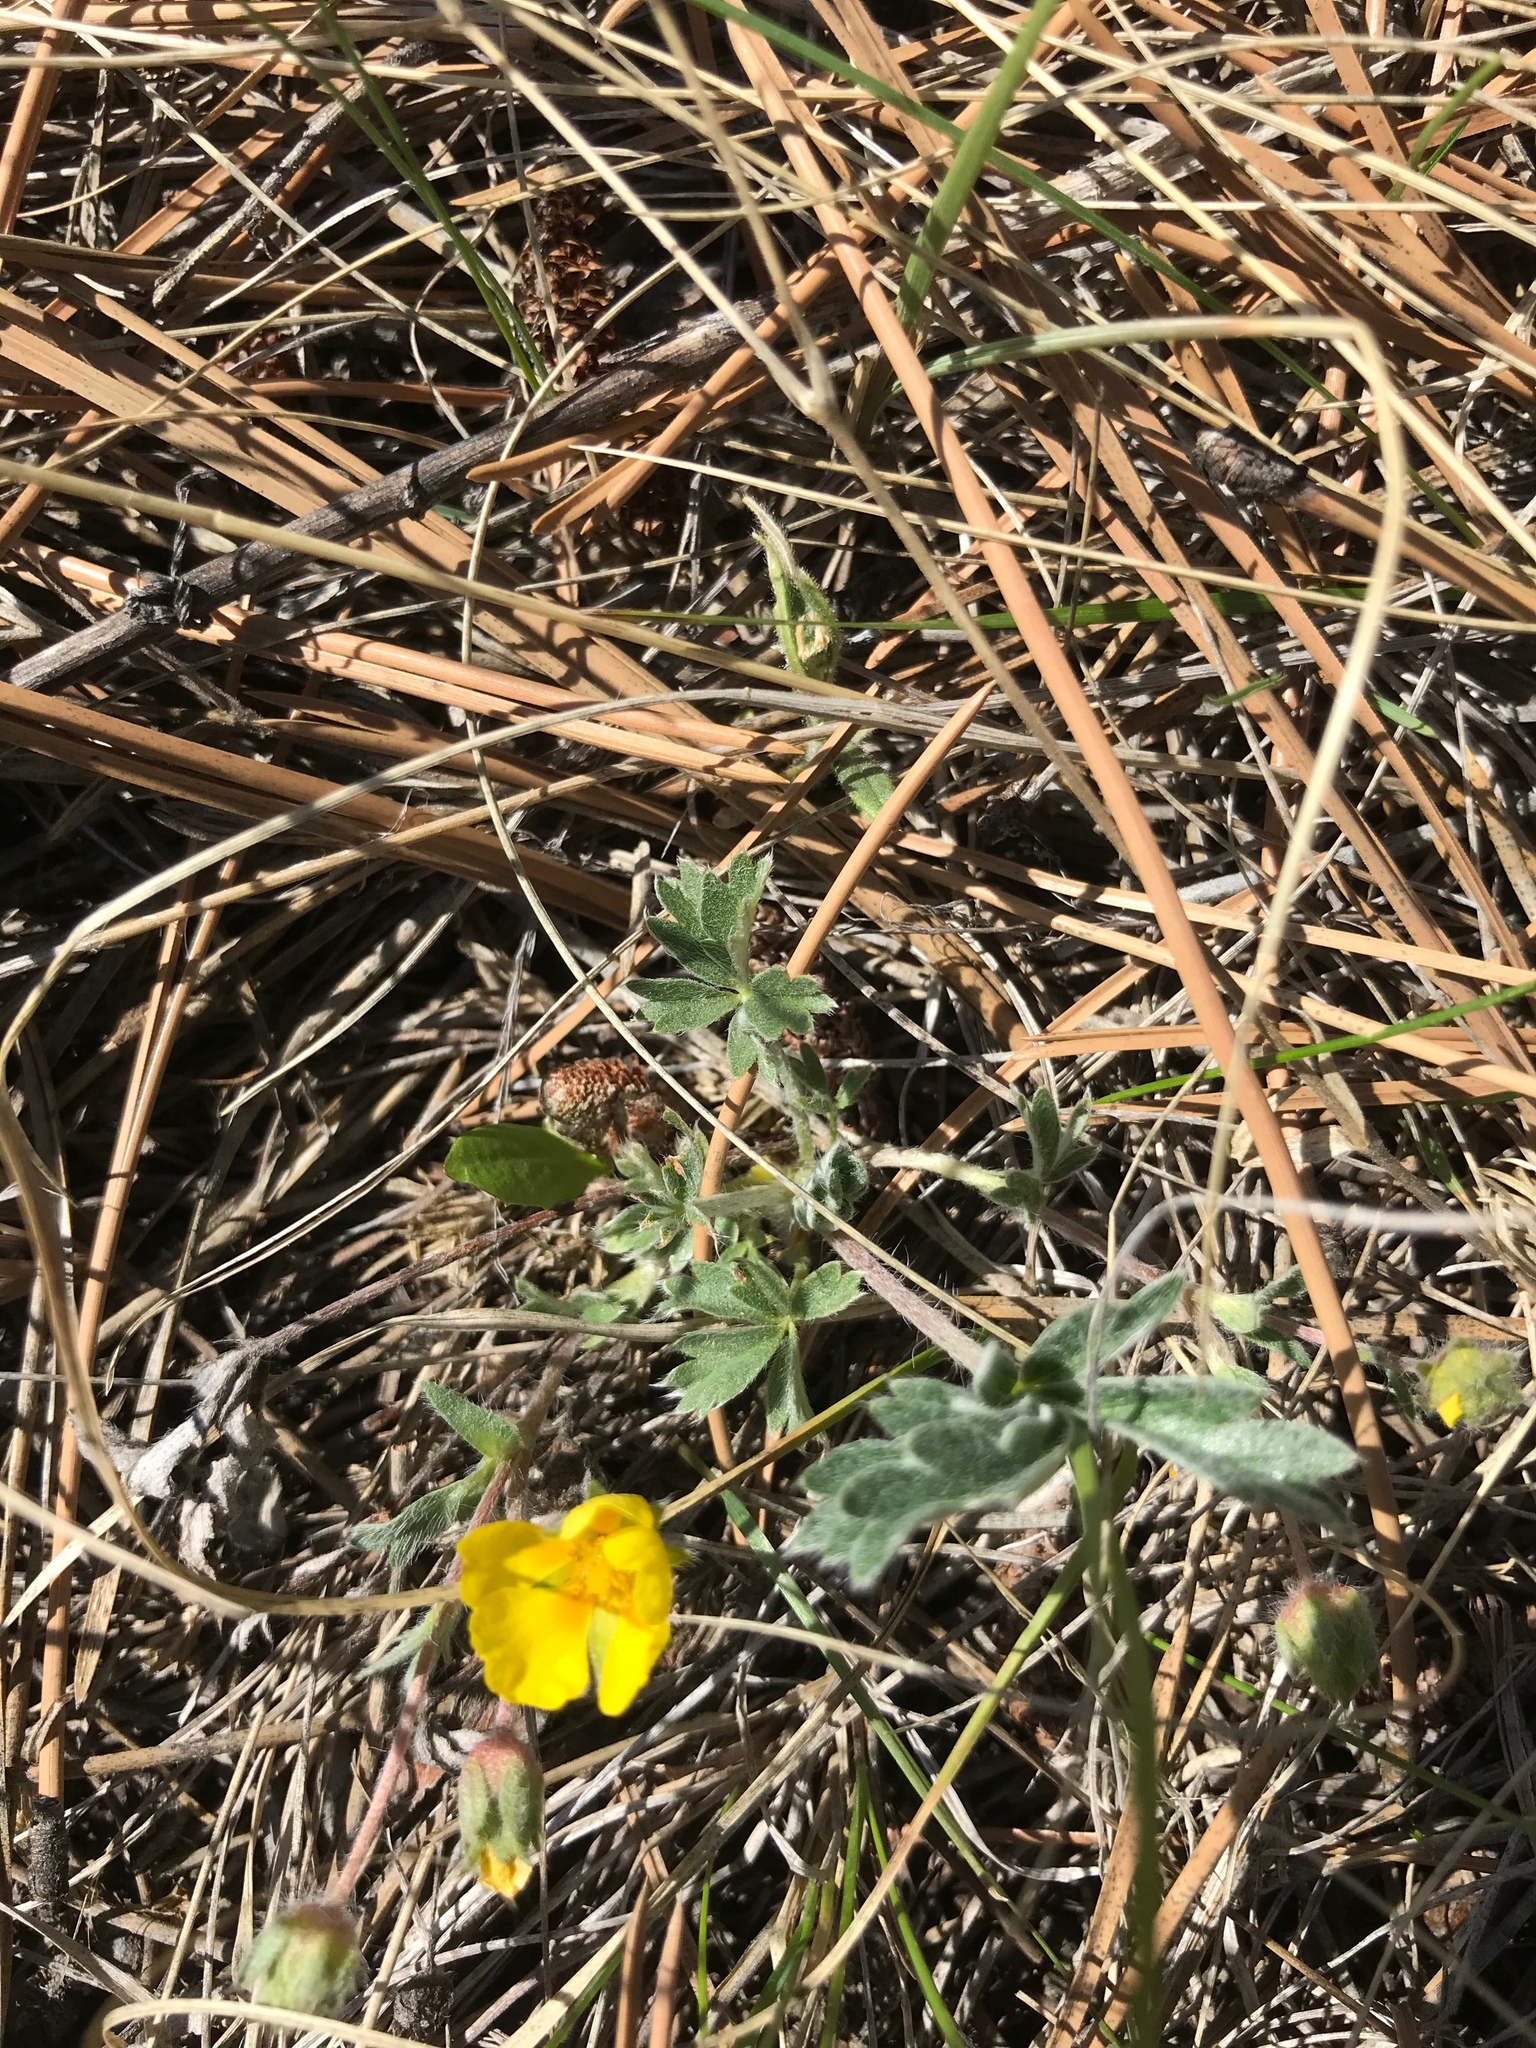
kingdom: Plantae
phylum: Tracheophyta
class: Magnoliopsida
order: Rosales
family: Rosaceae
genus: Potentilla
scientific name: Potentilla concinna
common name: Early cinquefoil
